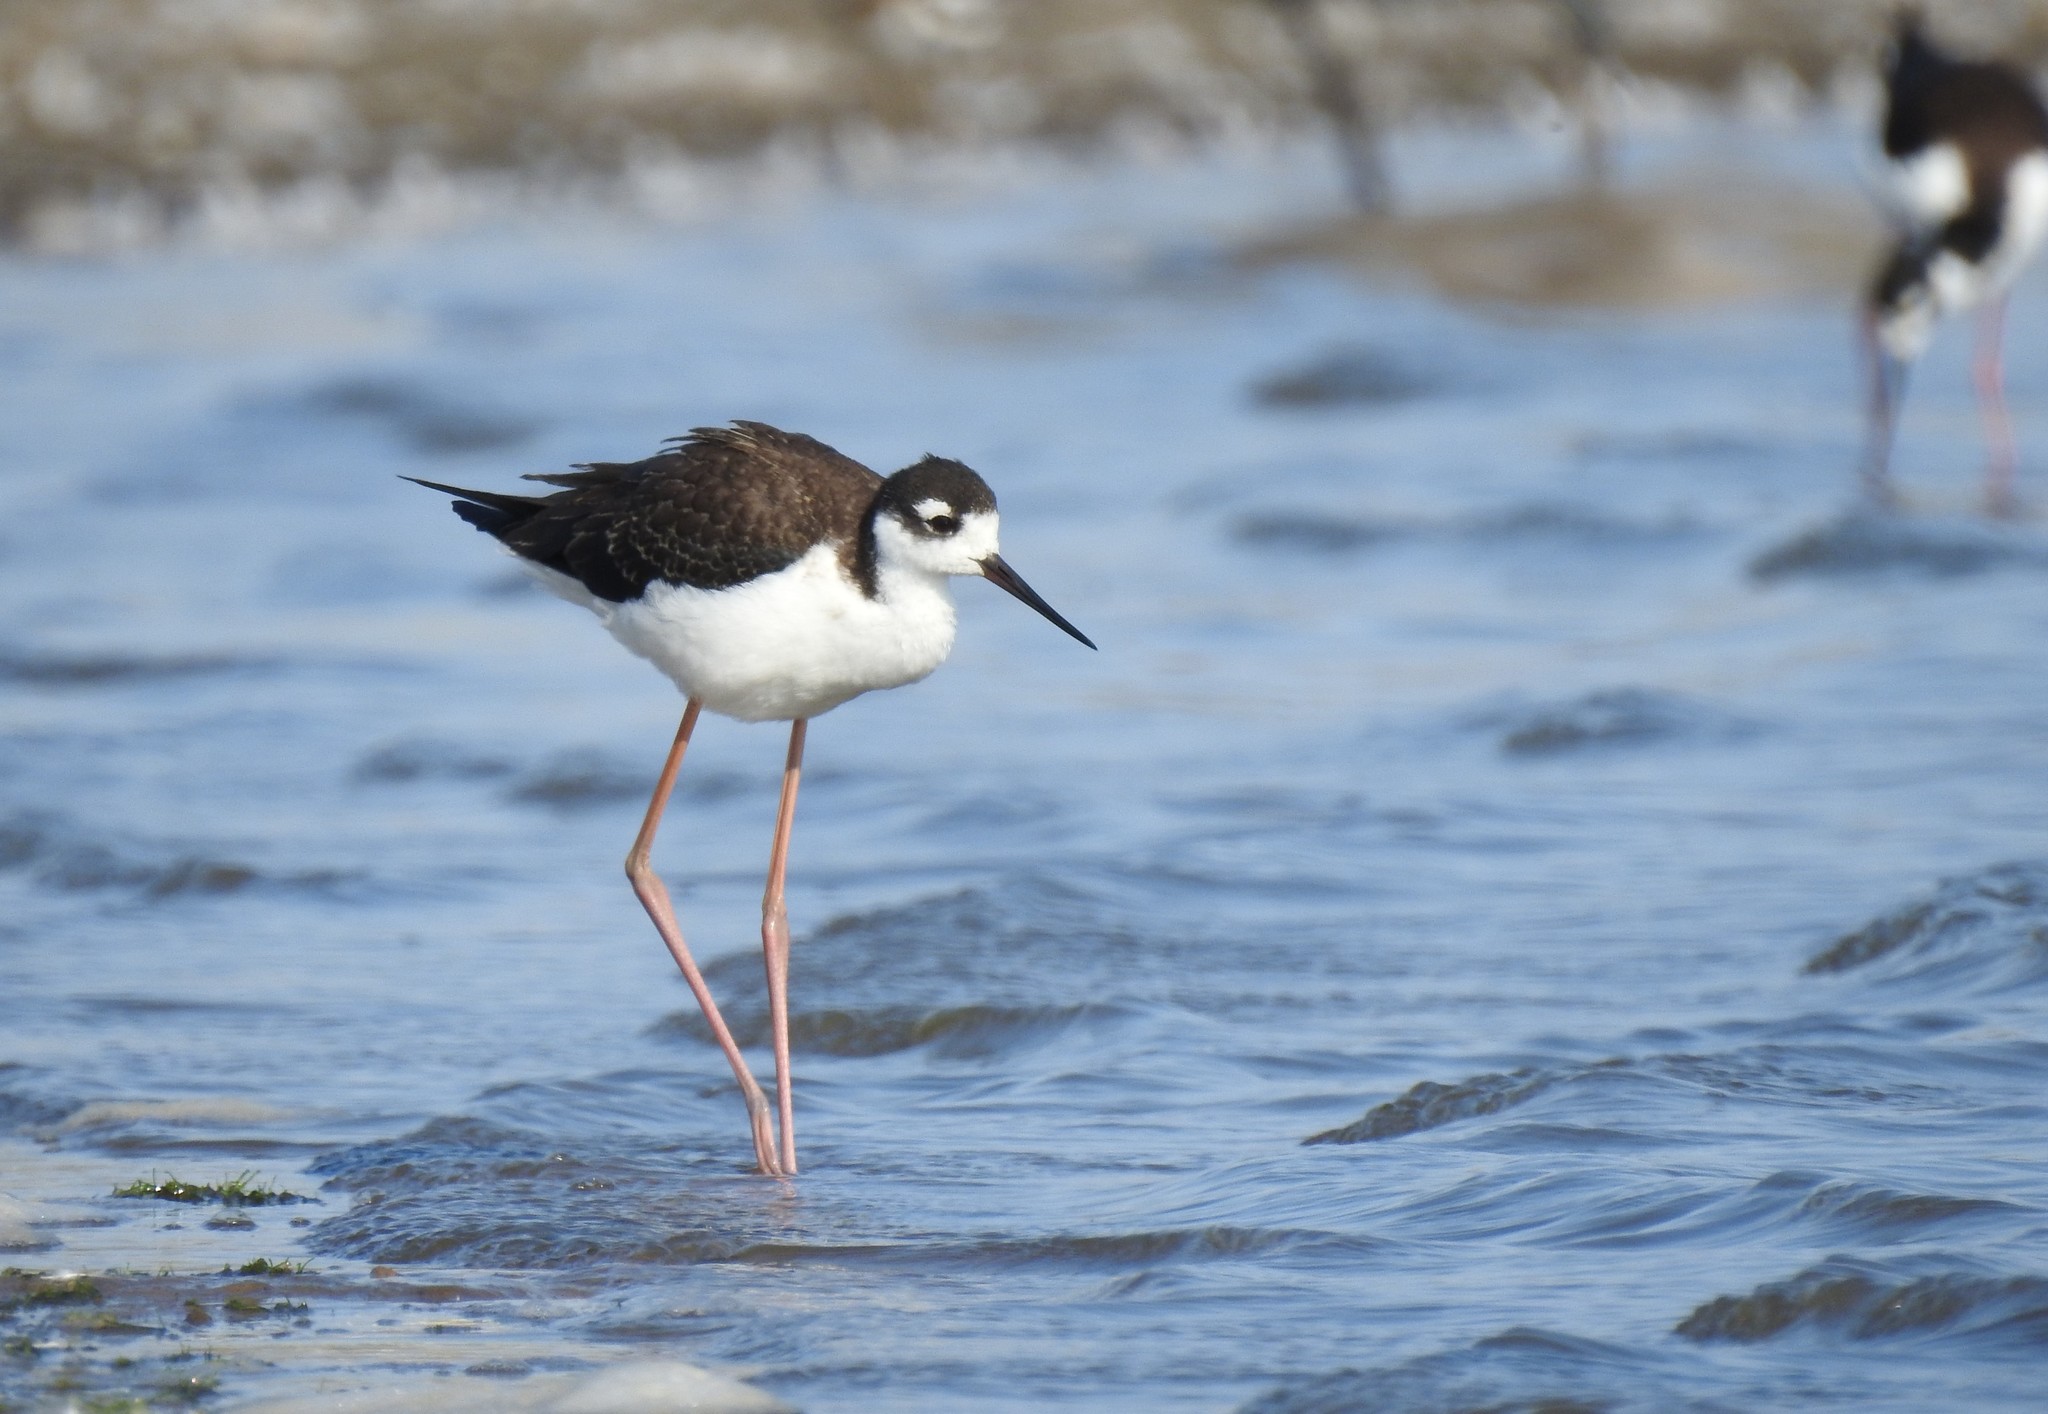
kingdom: Animalia
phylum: Chordata
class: Aves
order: Charadriiformes
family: Recurvirostridae
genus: Himantopus
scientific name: Himantopus mexicanus
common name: Black-necked stilt
